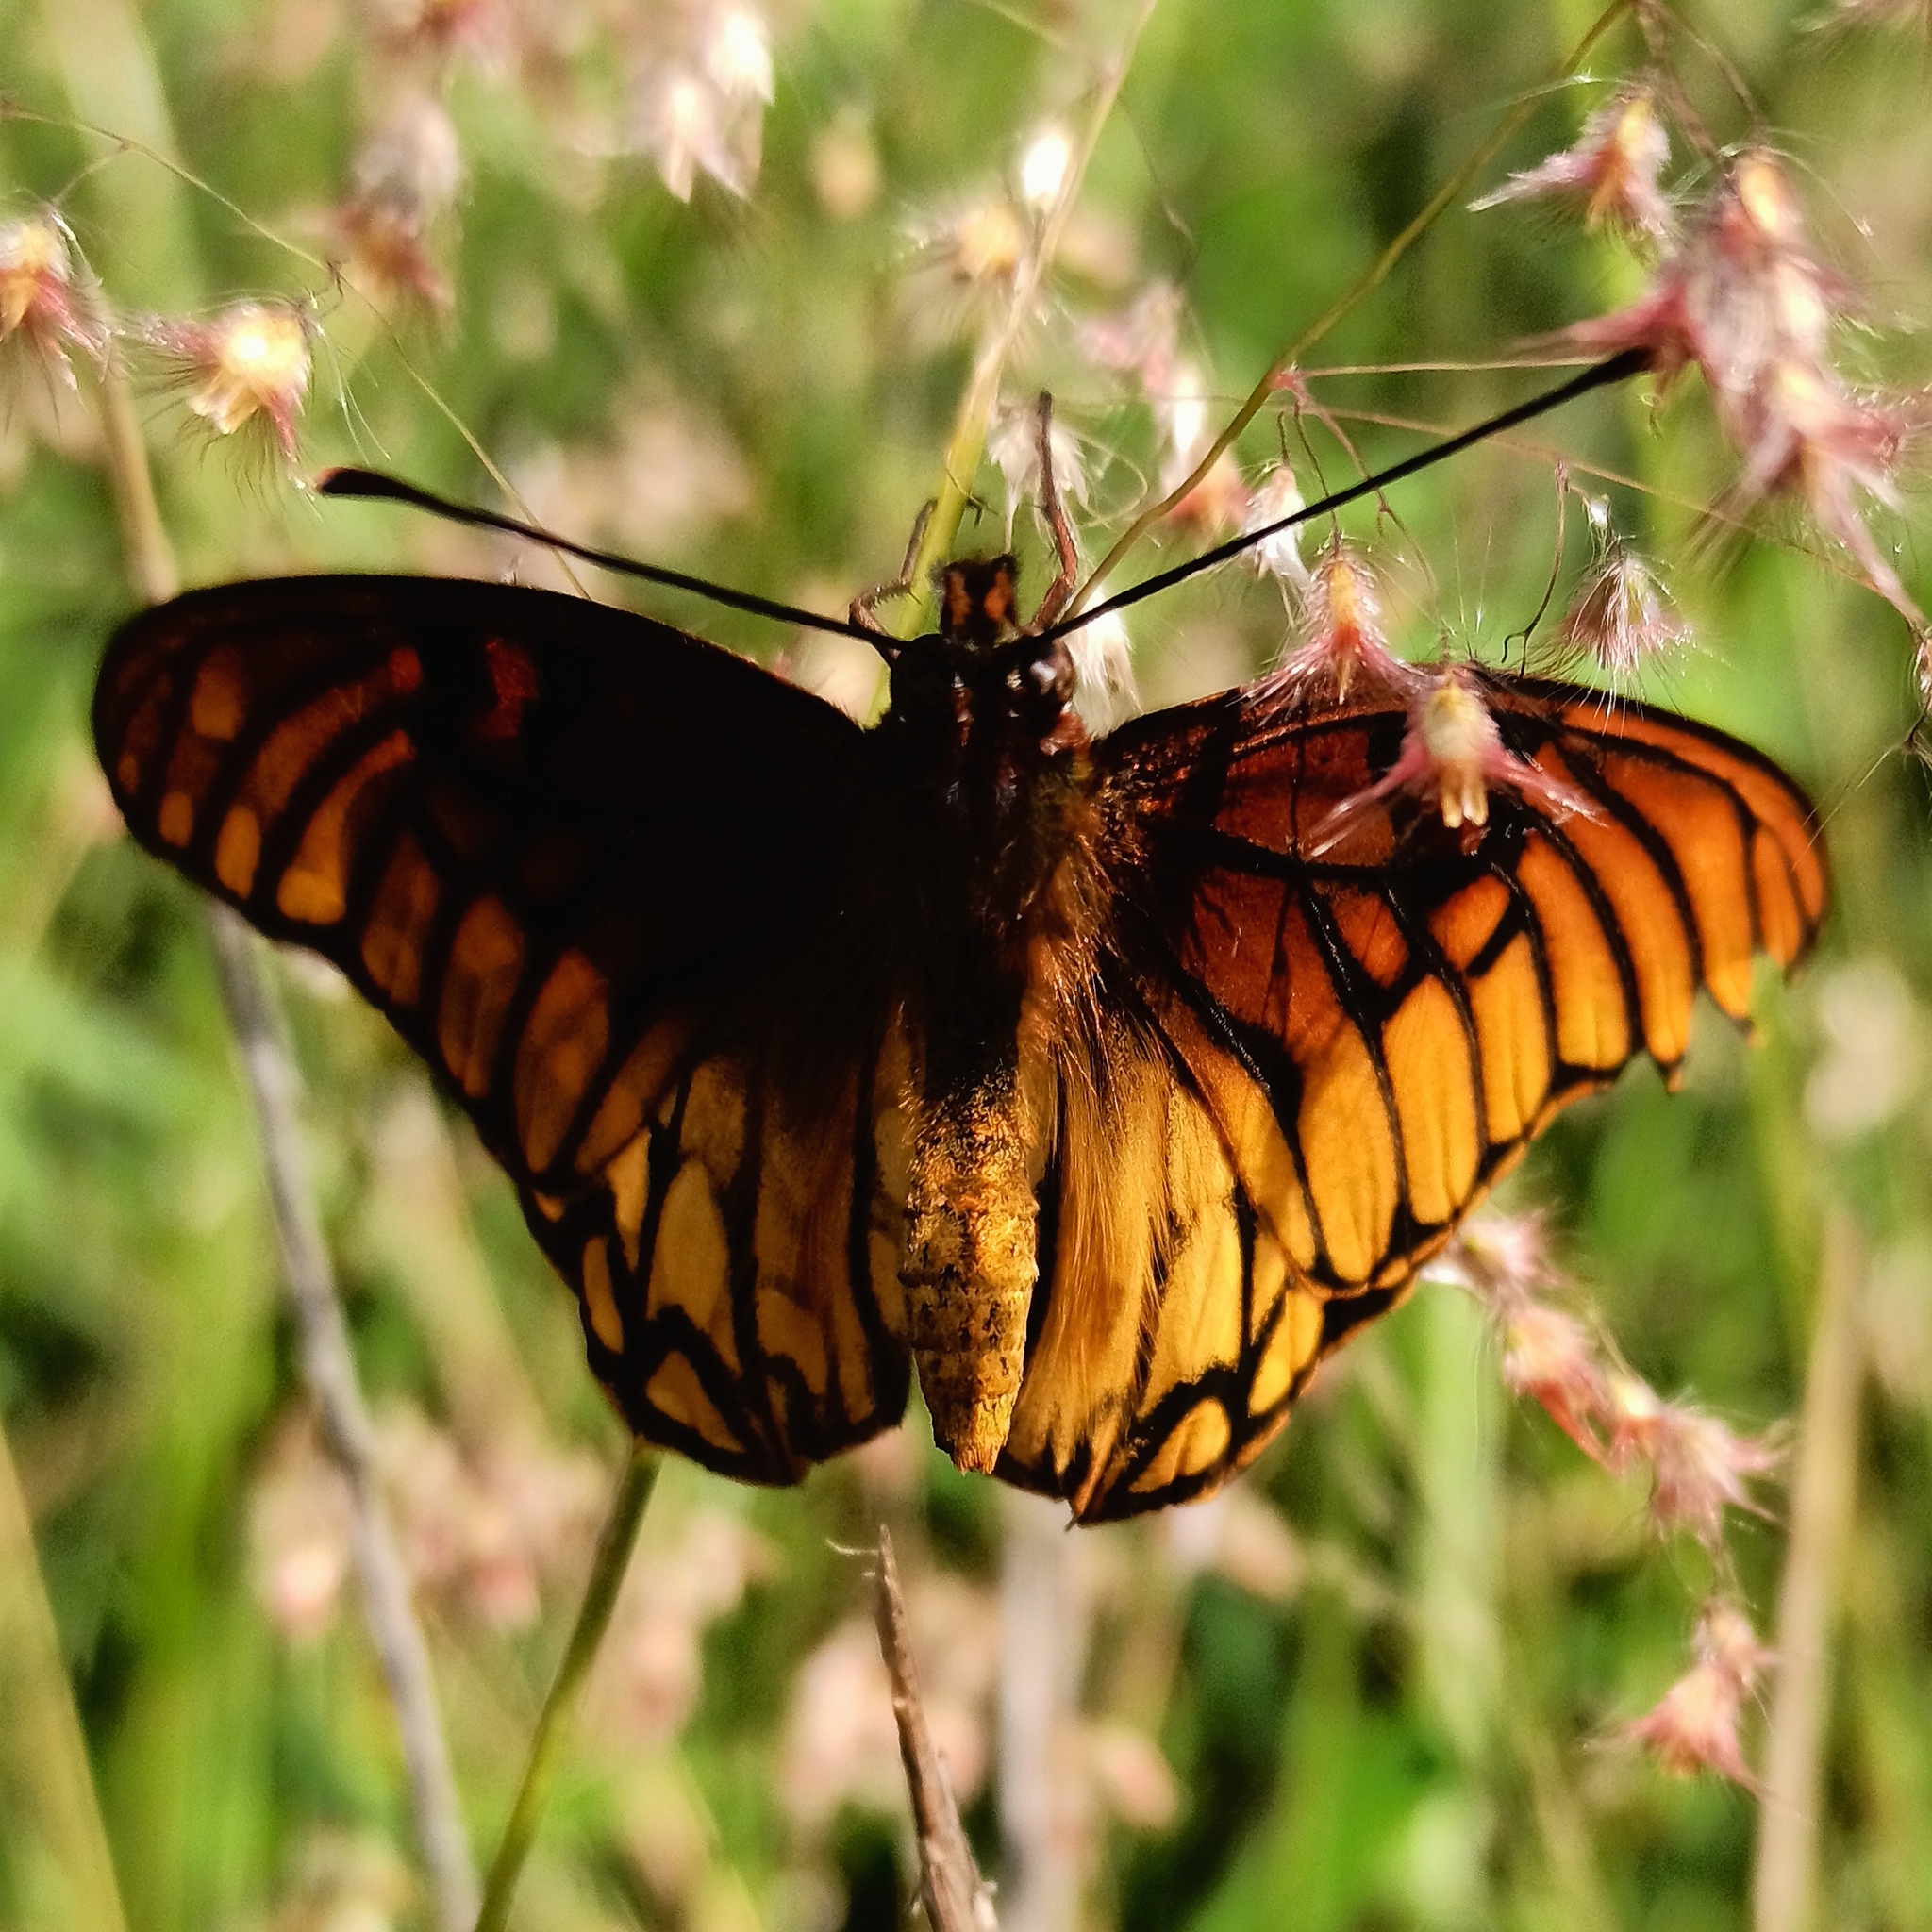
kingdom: Animalia
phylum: Arthropoda
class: Insecta
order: Lepidoptera
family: Nymphalidae
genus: Dione
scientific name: Dione moneta
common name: Mexican silverspot
